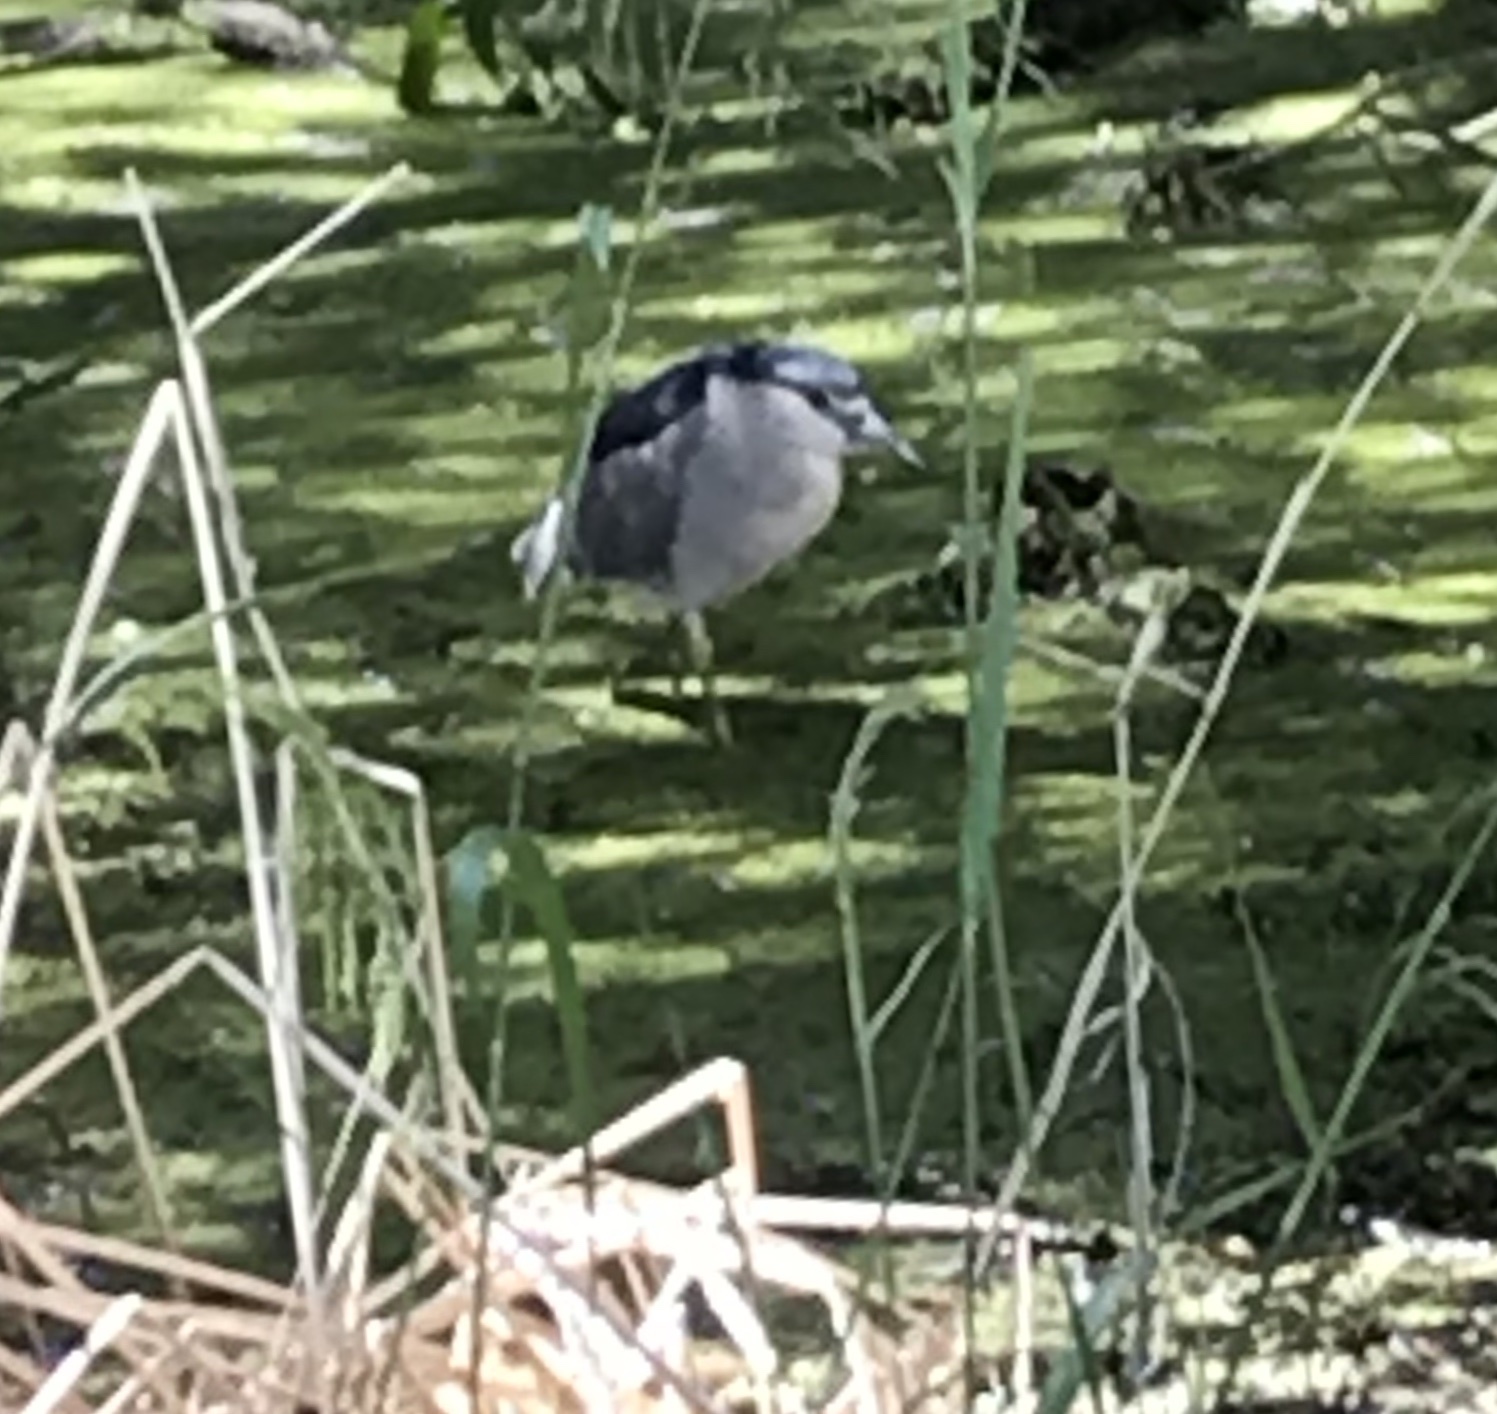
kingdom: Animalia
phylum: Chordata
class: Aves
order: Pelecaniformes
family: Ardeidae
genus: Nycticorax
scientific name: Nycticorax nycticorax
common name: Black-crowned night heron
